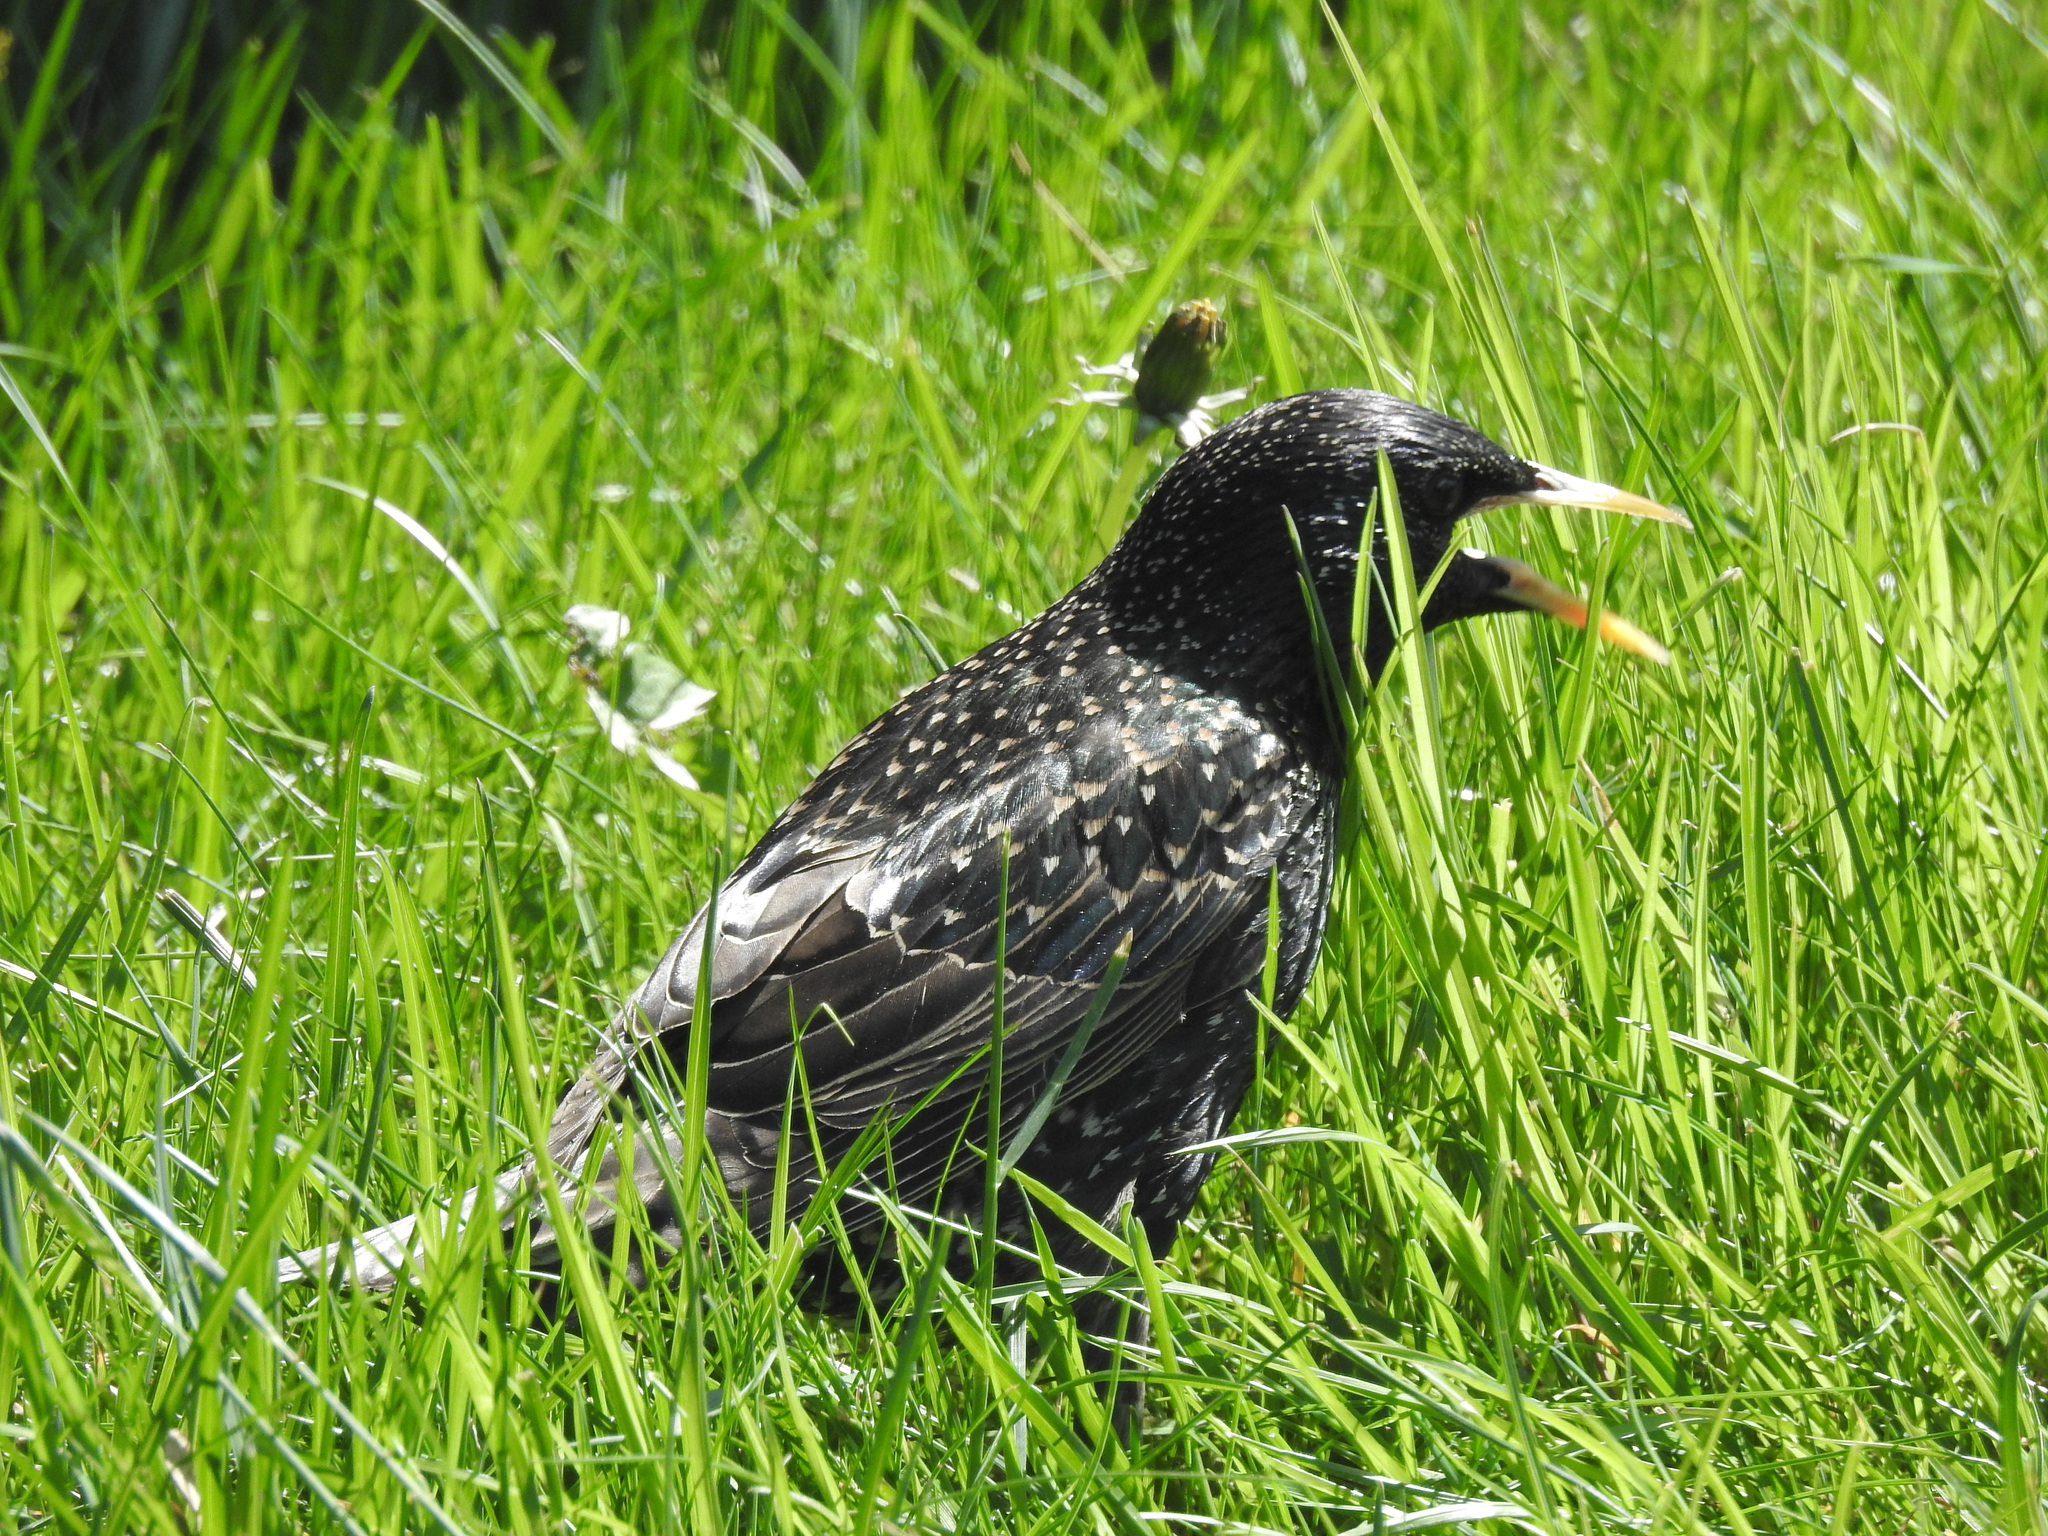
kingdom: Animalia
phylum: Chordata
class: Aves
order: Passeriformes
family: Sturnidae
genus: Sturnus
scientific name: Sturnus vulgaris
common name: Common starling
